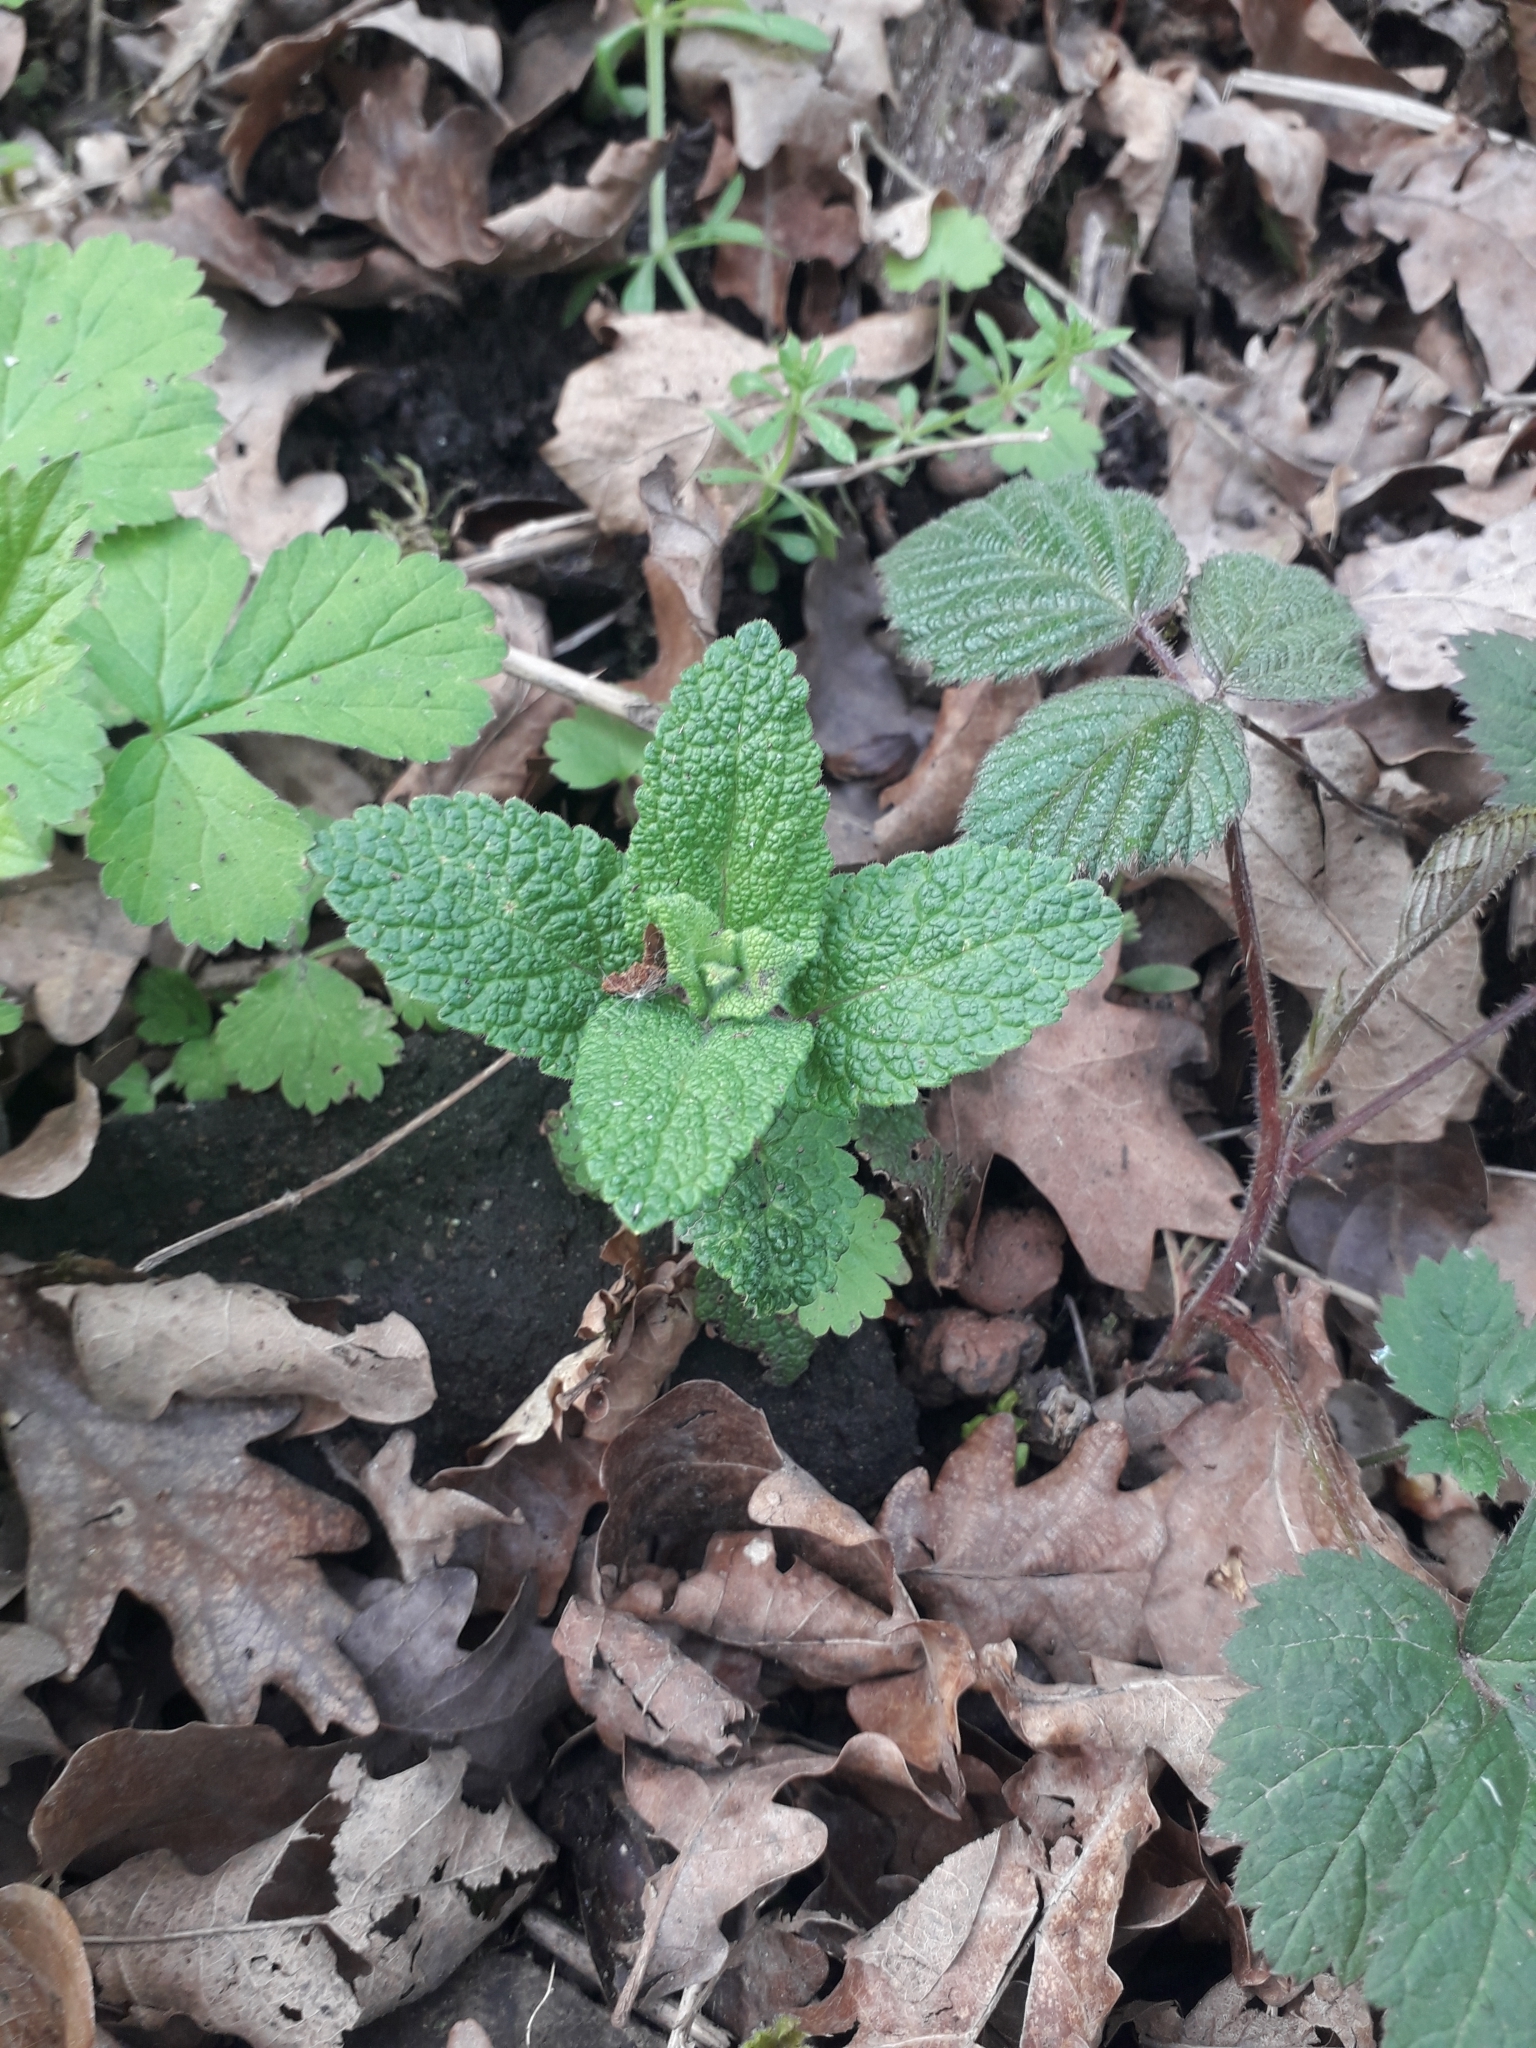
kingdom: Plantae
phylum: Tracheophyta
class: Magnoliopsida
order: Lamiales
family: Lamiaceae
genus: Teucrium
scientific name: Teucrium scorodonia
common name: Woodland germander
